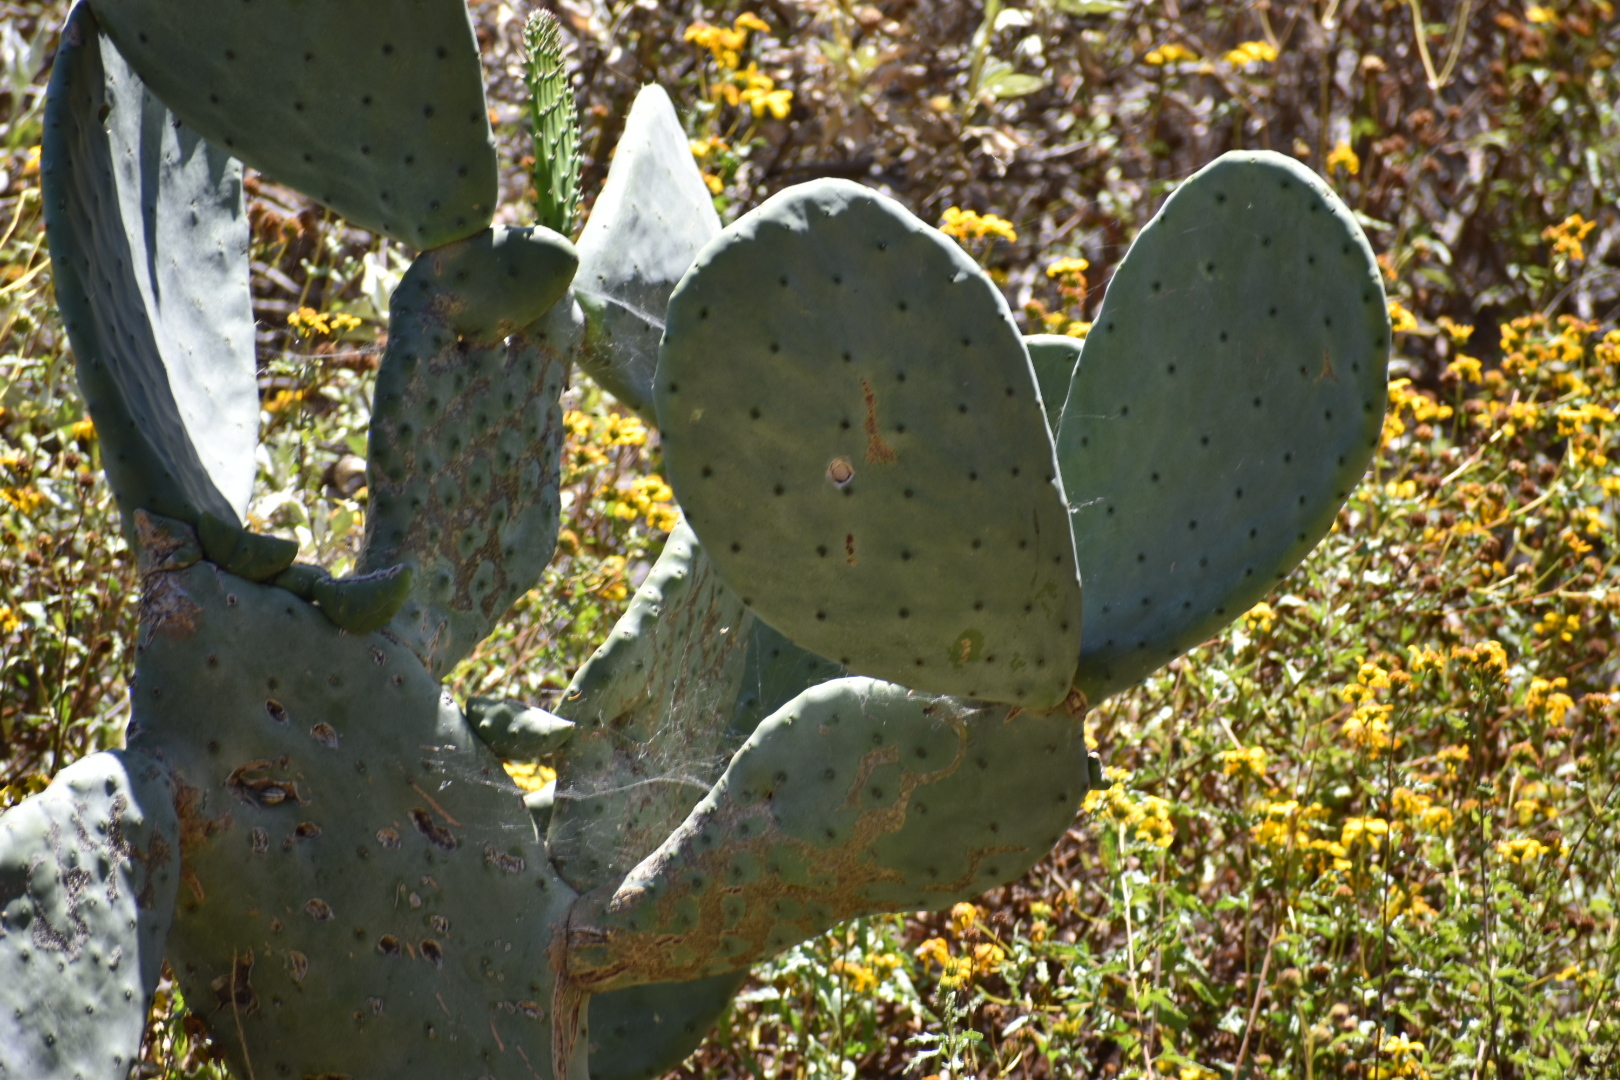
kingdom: Plantae
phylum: Tracheophyta
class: Magnoliopsida
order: Caryophyllales
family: Cactaceae
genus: Opuntia
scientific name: Opuntia ficus-indica
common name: Barbary fig
